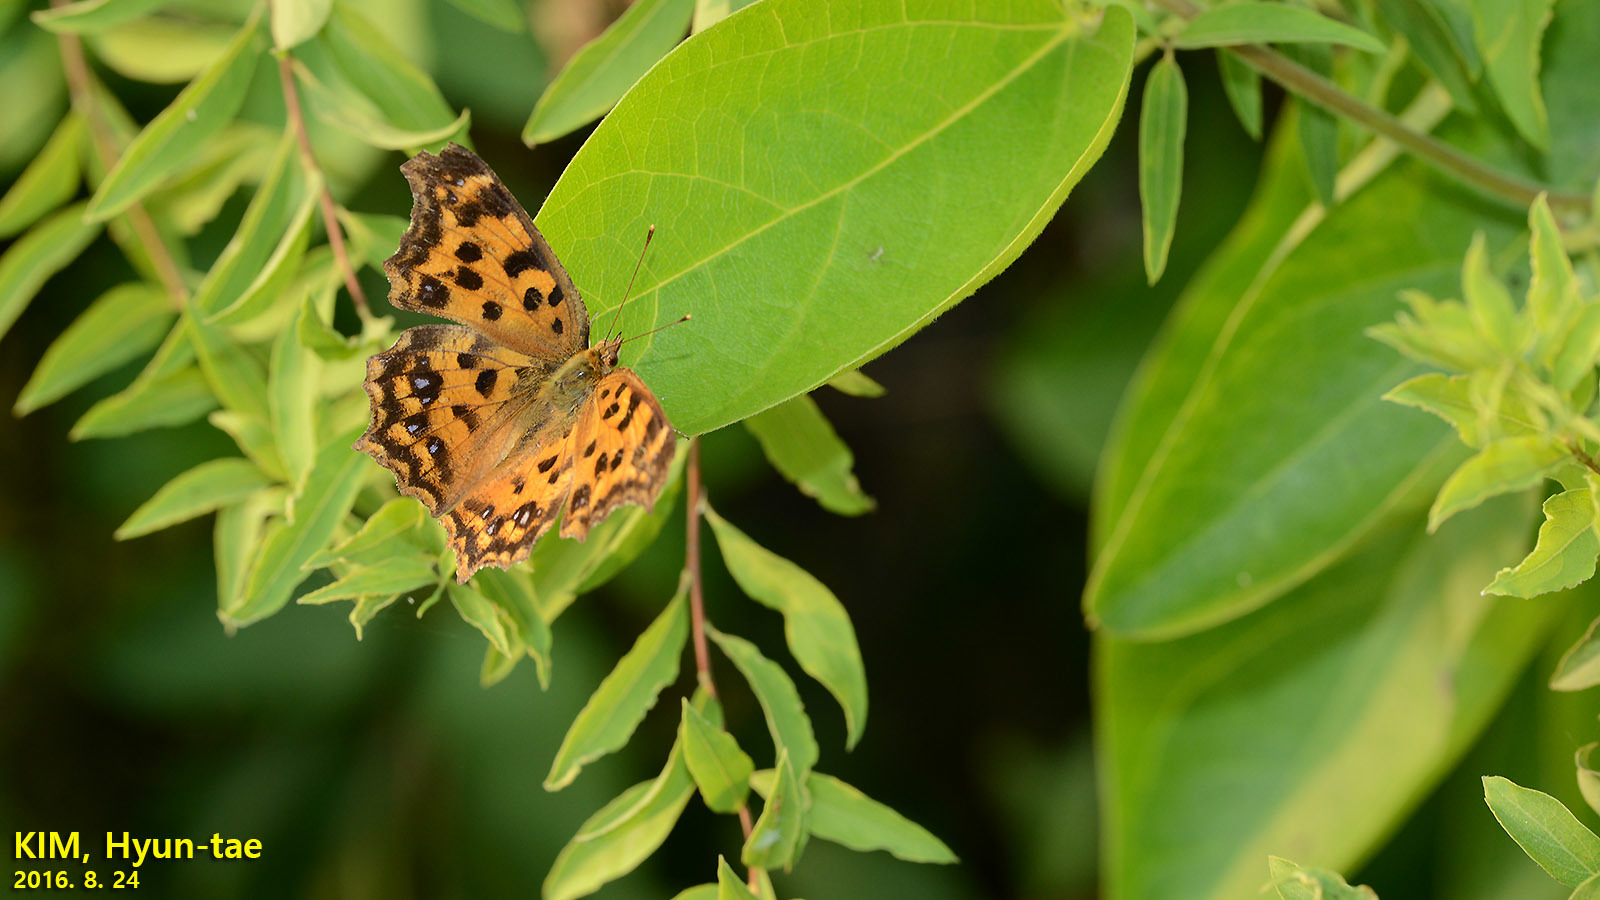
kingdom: Animalia
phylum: Arthropoda
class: Insecta
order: Lepidoptera
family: Nymphalidae
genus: Polygonia
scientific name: Polygonia c-aureum
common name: Asian comma
